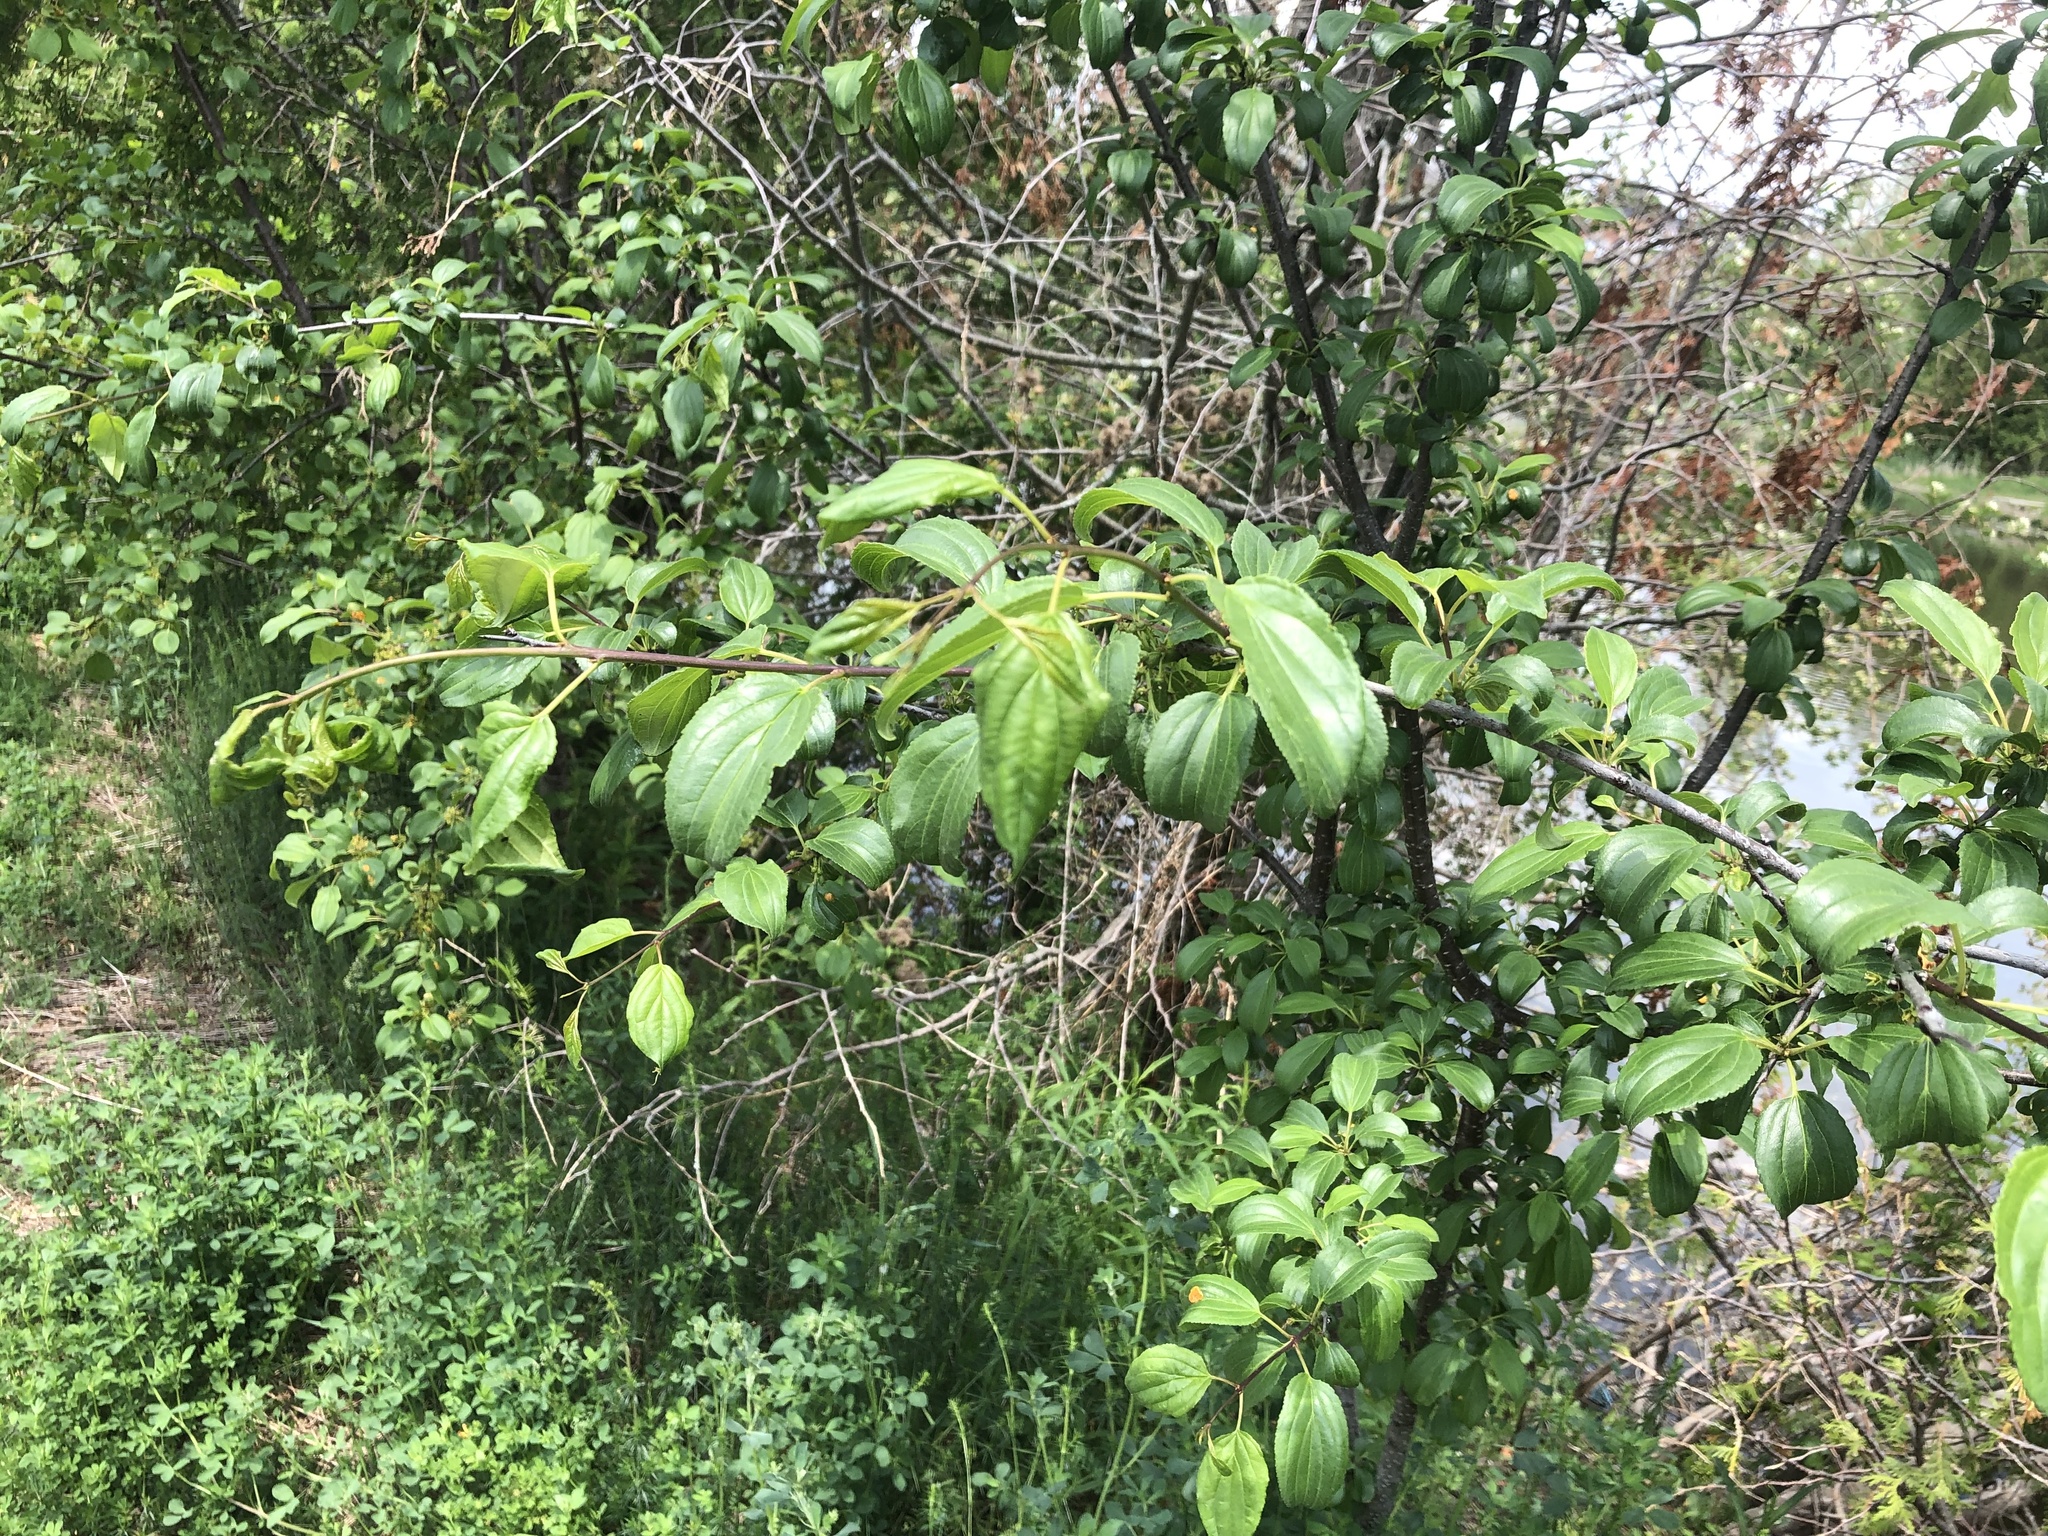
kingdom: Plantae
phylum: Tracheophyta
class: Magnoliopsida
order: Rosales
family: Rhamnaceae
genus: Rhamnus
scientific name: Rhamnus cathartica
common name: Common buckthorn
